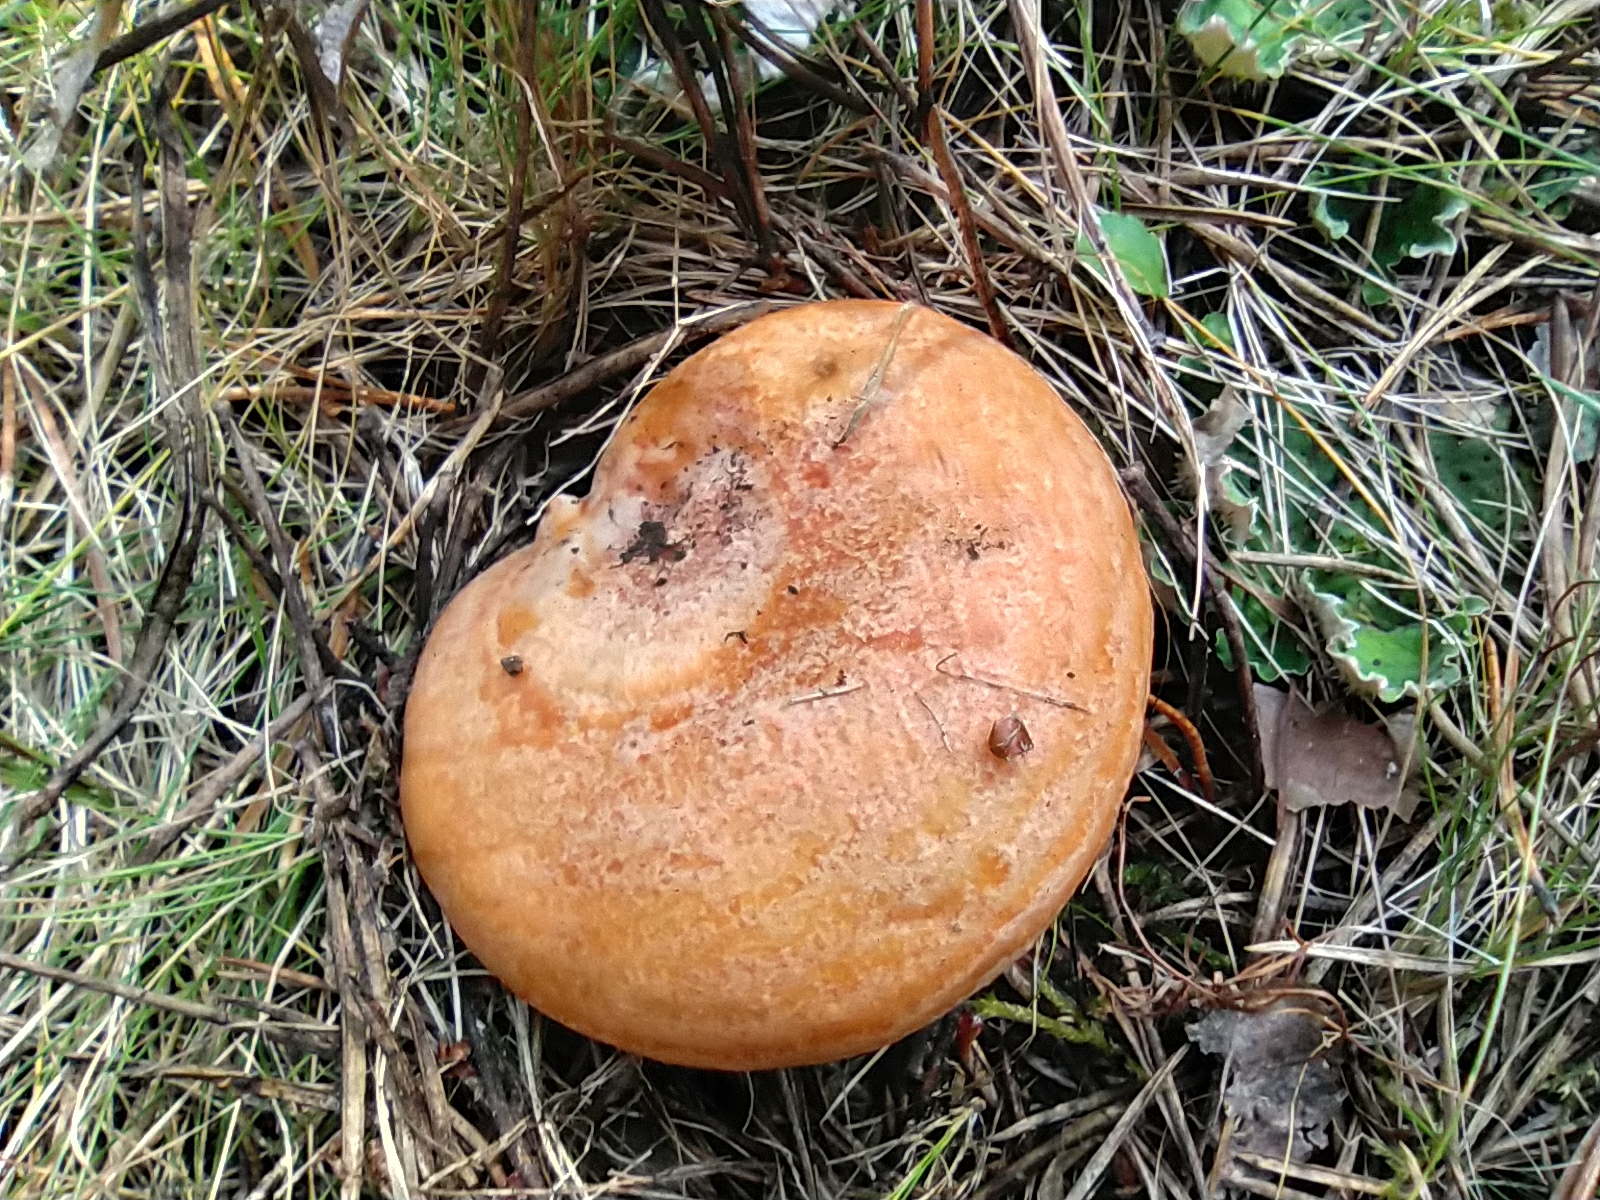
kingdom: Fungi
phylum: Basidiomycota
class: Agaricomycetes
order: Russulales
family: Russulaceae
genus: Lactarius
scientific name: Lactarius deliciosus
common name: Saffron milk-cap
